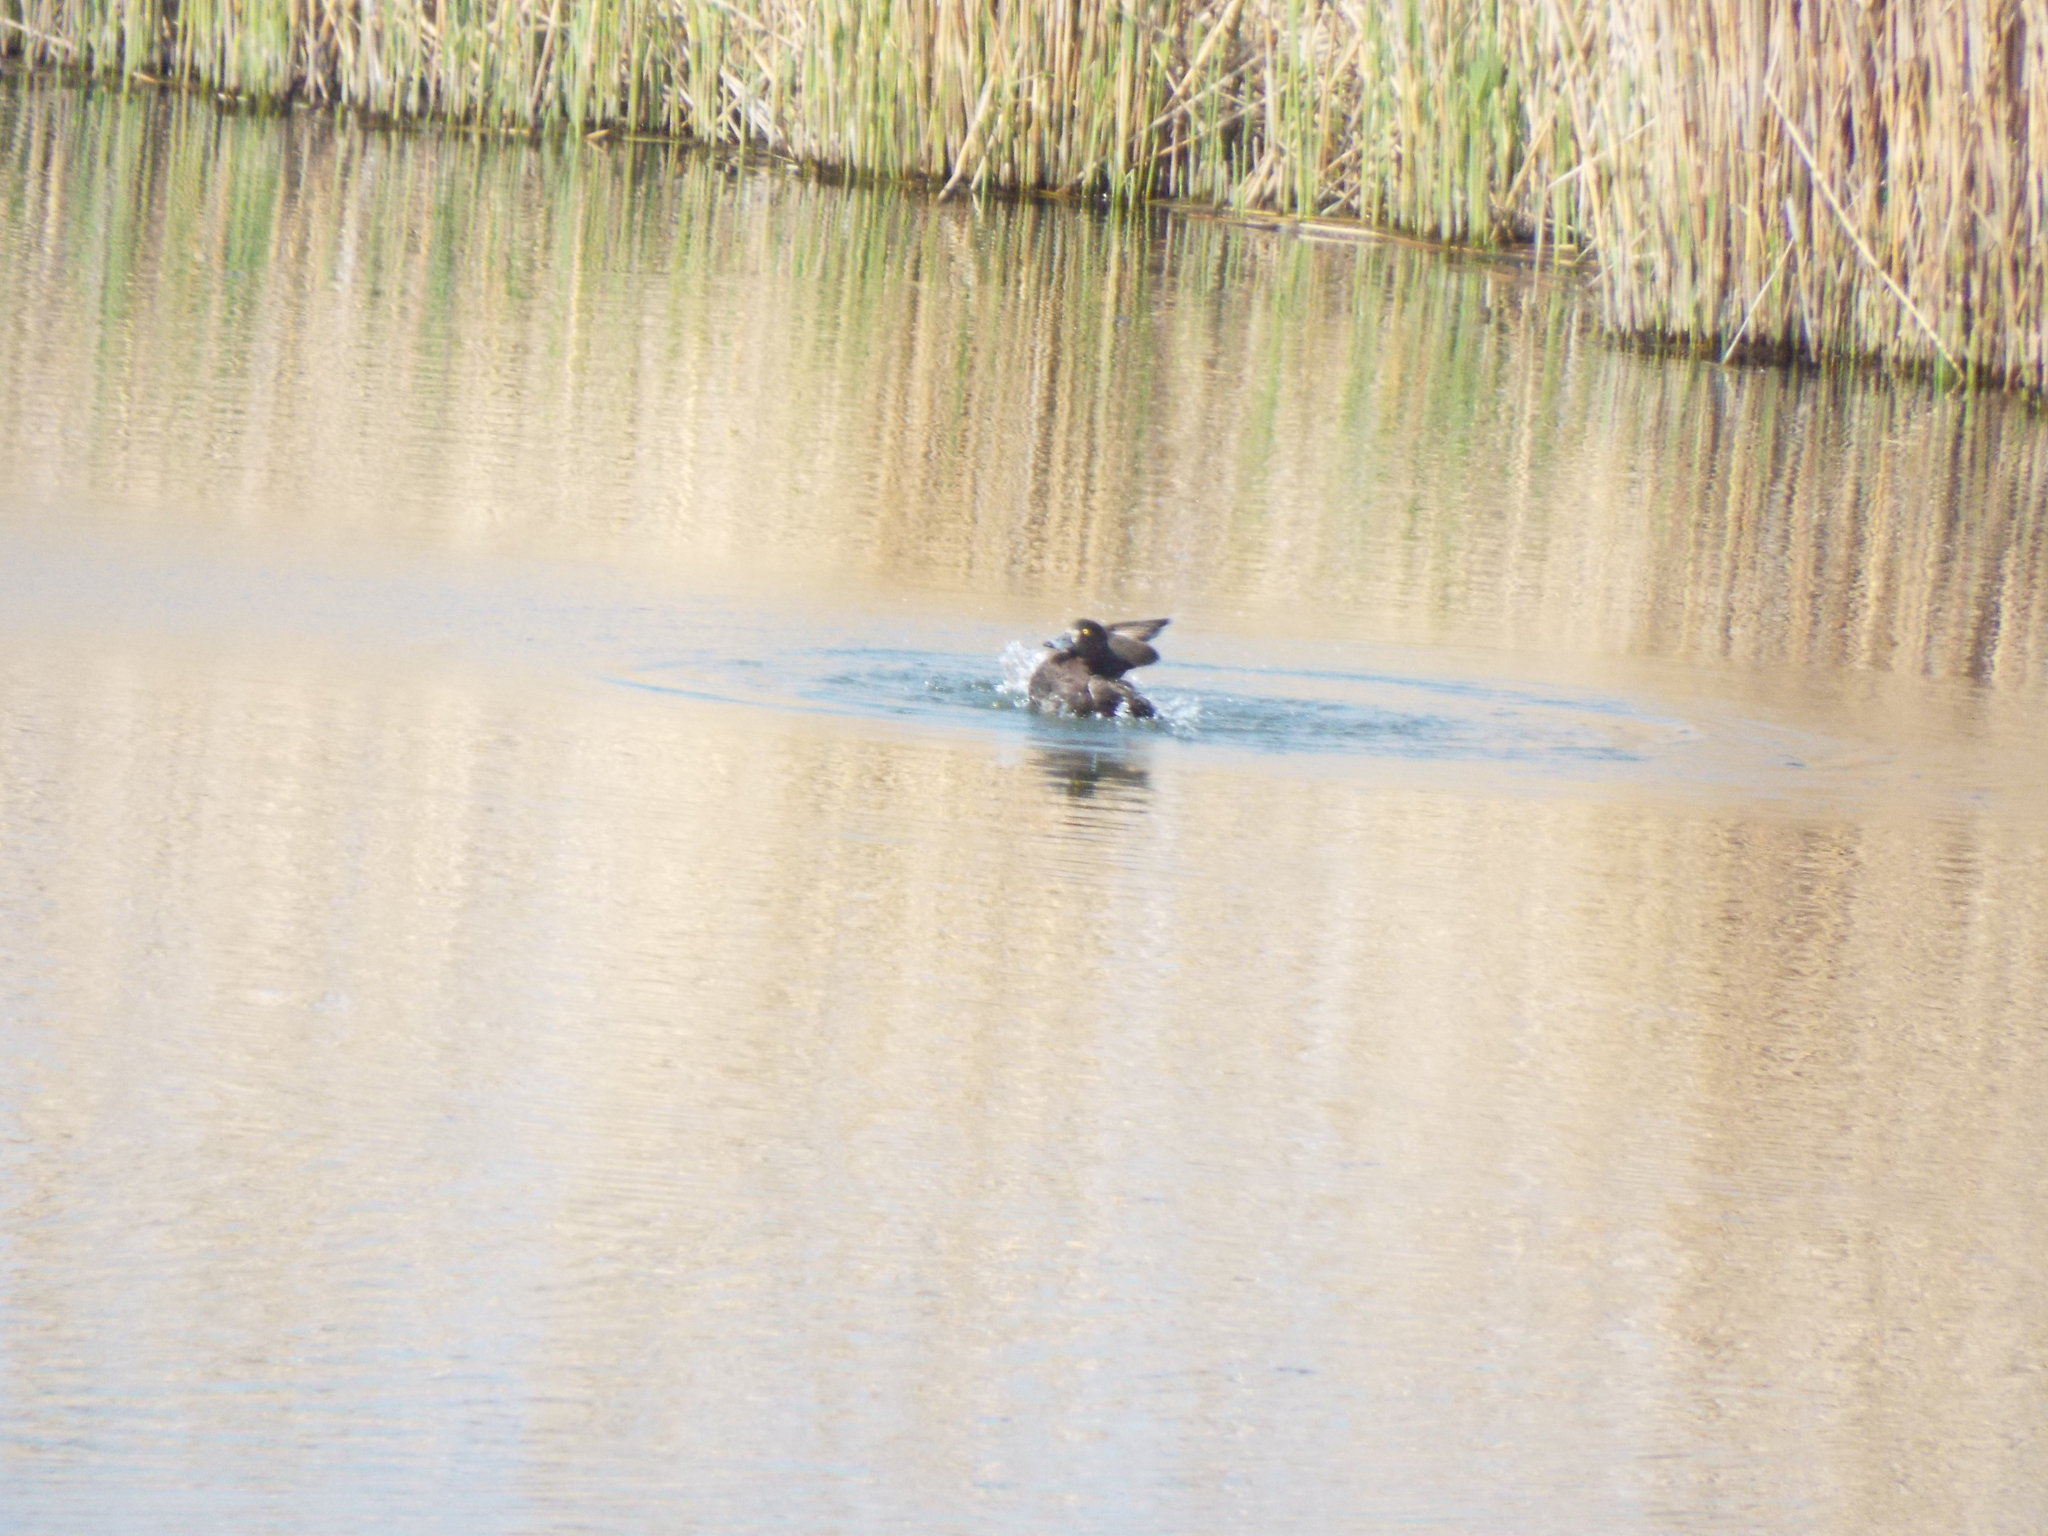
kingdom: Animalia
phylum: Chordata
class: Aves
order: Anseriformes
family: Anatidae
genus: Aythya
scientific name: Aythya fuligula
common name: Tufted duck
